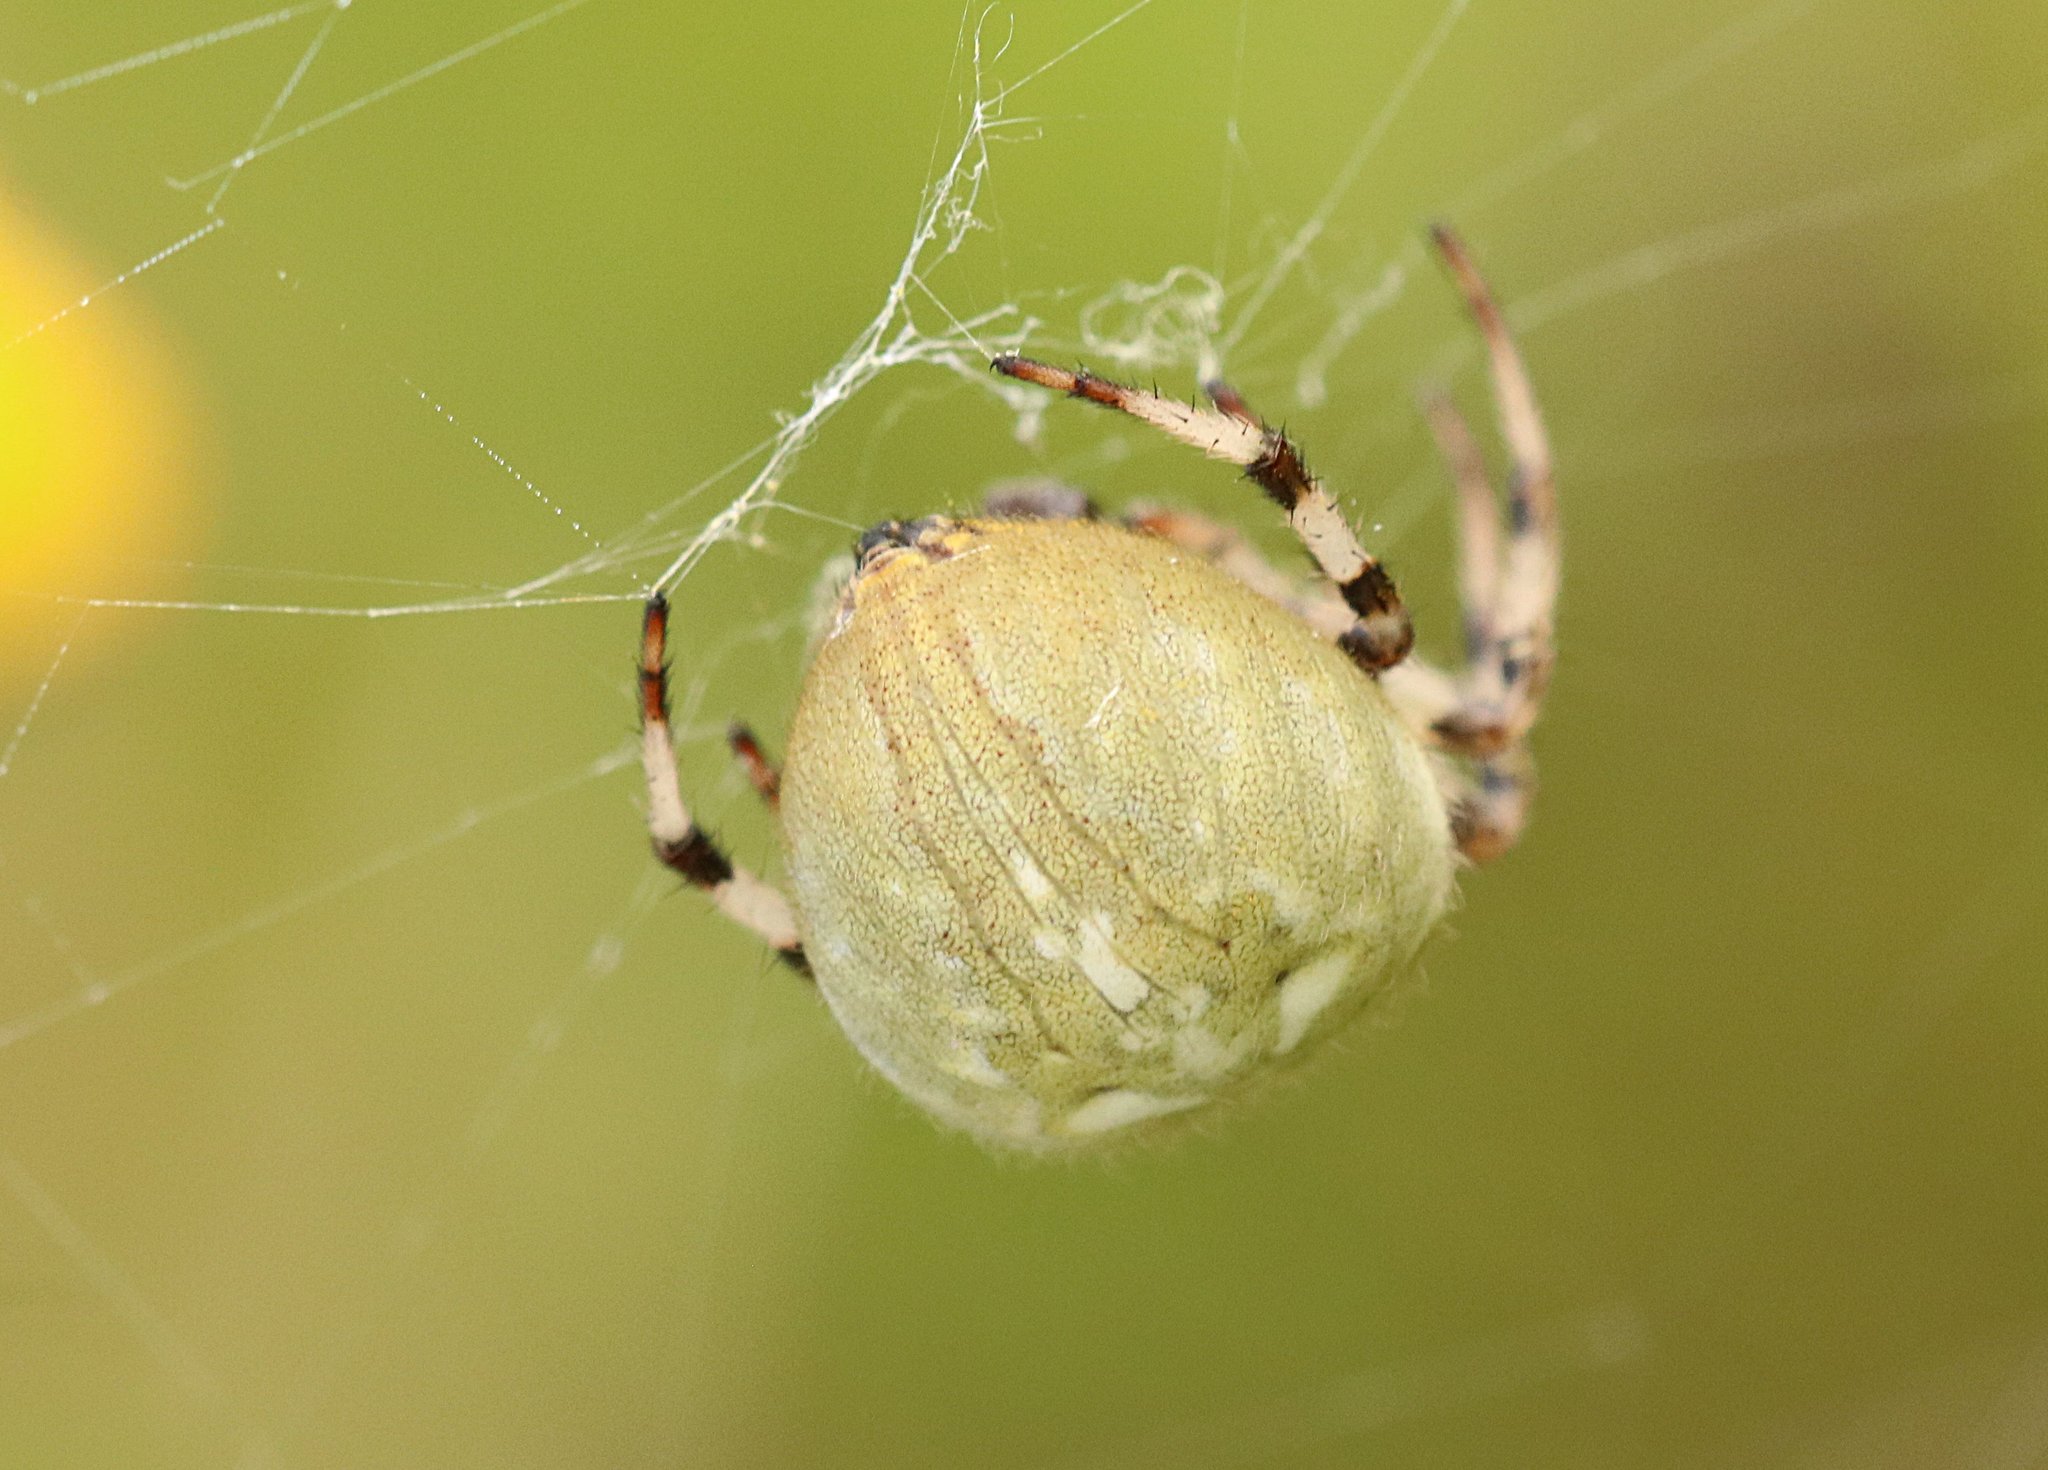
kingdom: Animalia
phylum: Arthropoda
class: Arachnida
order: Araneae
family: Araneidae
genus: Araneus
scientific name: Araneus quadratus
